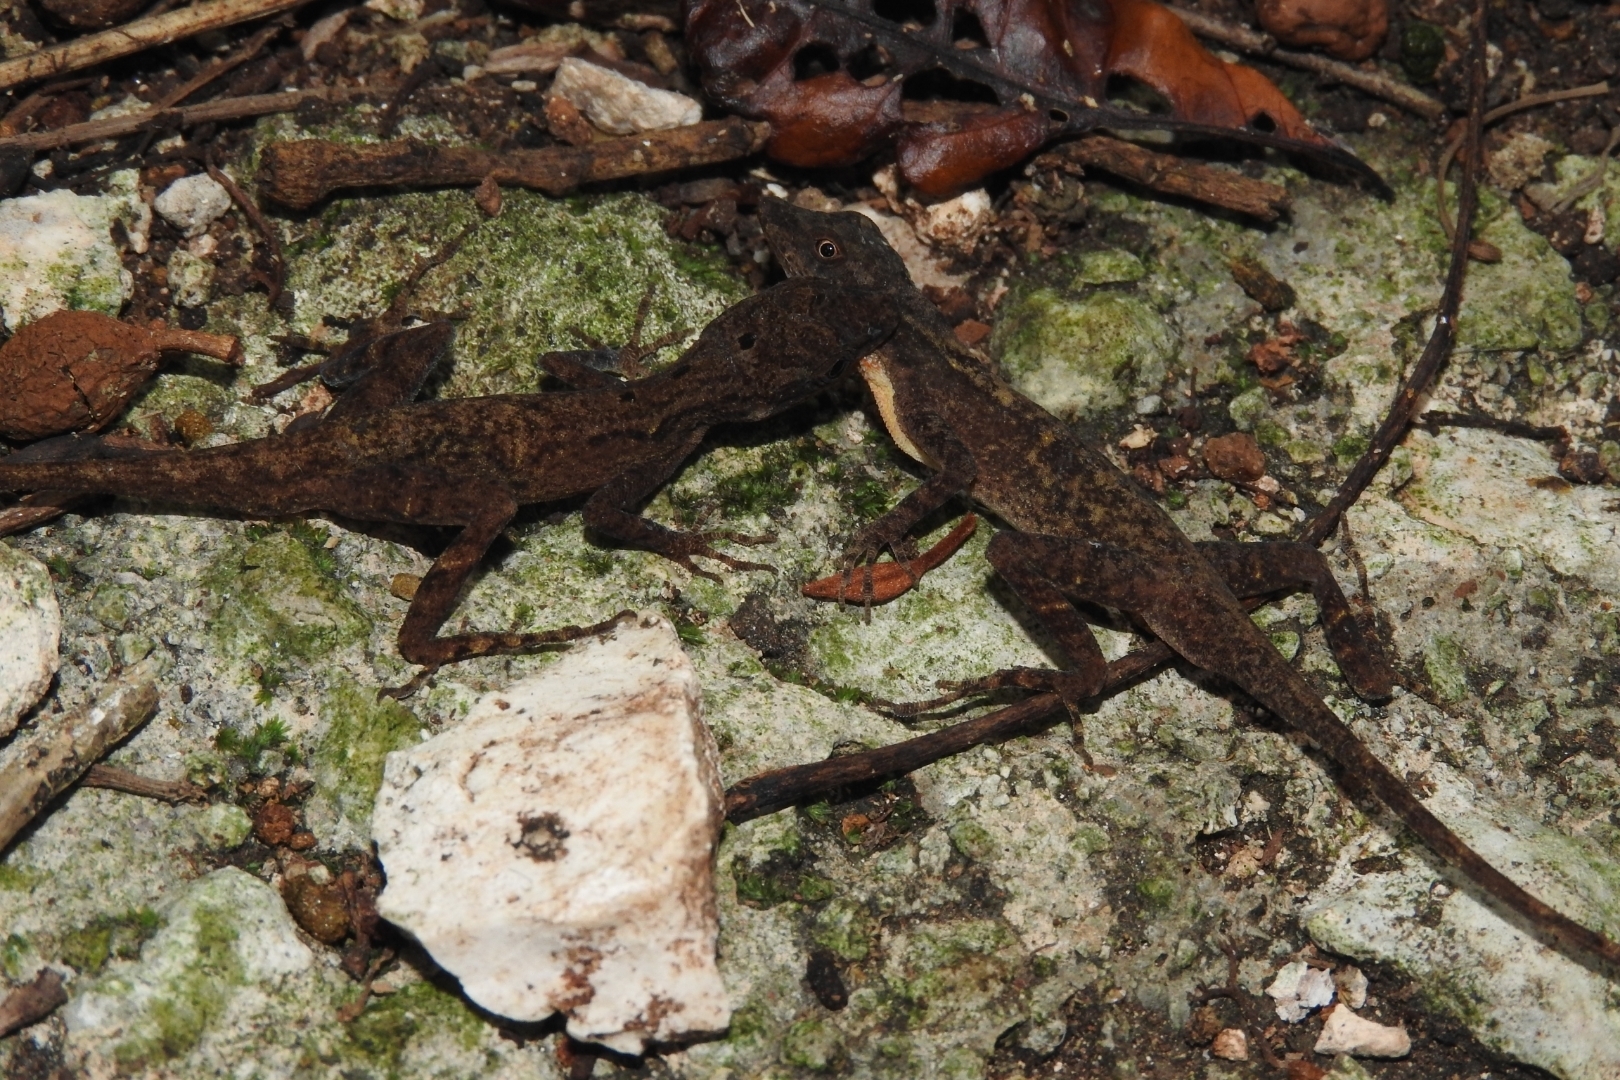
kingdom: Animalia
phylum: Chordata
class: Squamata
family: Dactyloidae
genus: Anolis
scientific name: Anolis rodriguezii
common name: Middle american smooth anole
